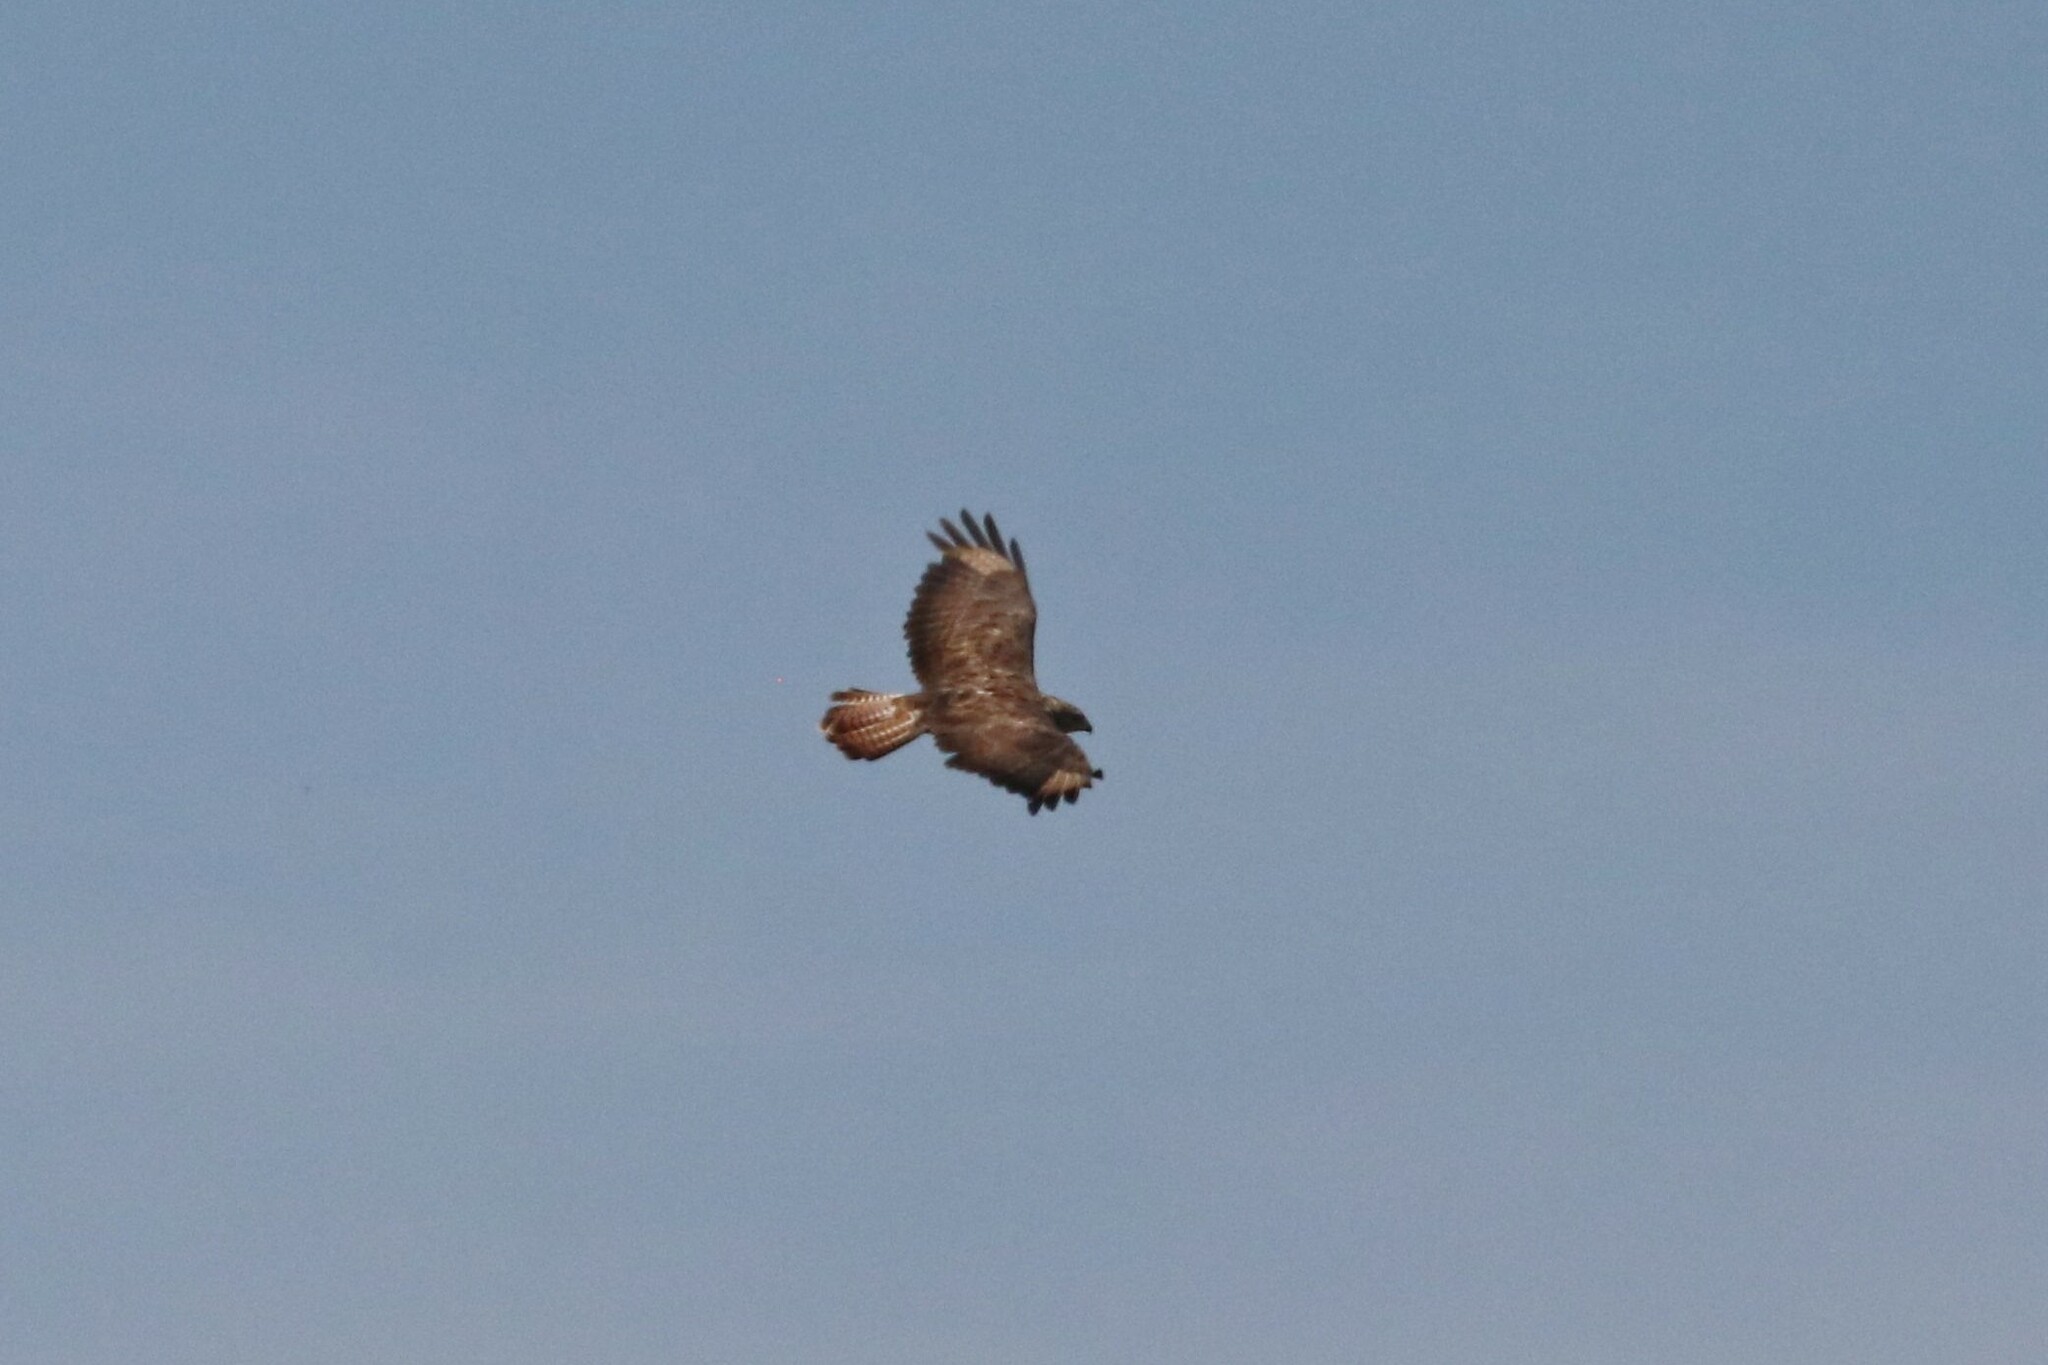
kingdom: Animalia
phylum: Chordata
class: Aves
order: Accipitriformes
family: Accipitridae
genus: Buteo
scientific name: Buteo buteo
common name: Common buzzard
